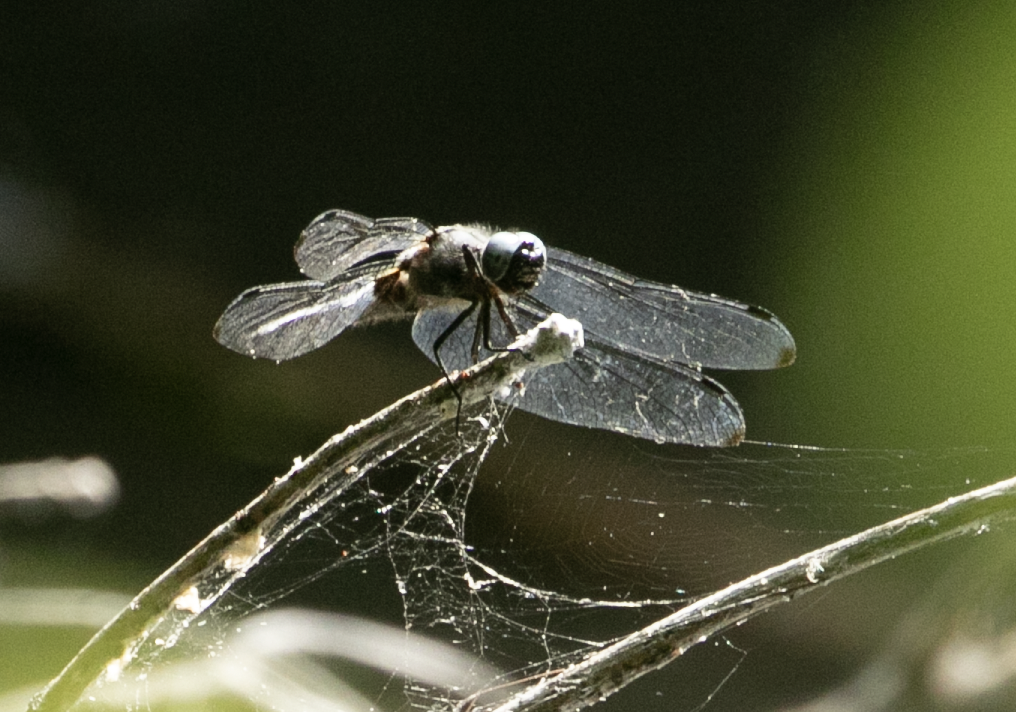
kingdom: Animalia
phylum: Arthropoda
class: Insecta
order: Odonata
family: Libellulidae
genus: Libellula
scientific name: Libellula fulva
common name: Blue chaser
